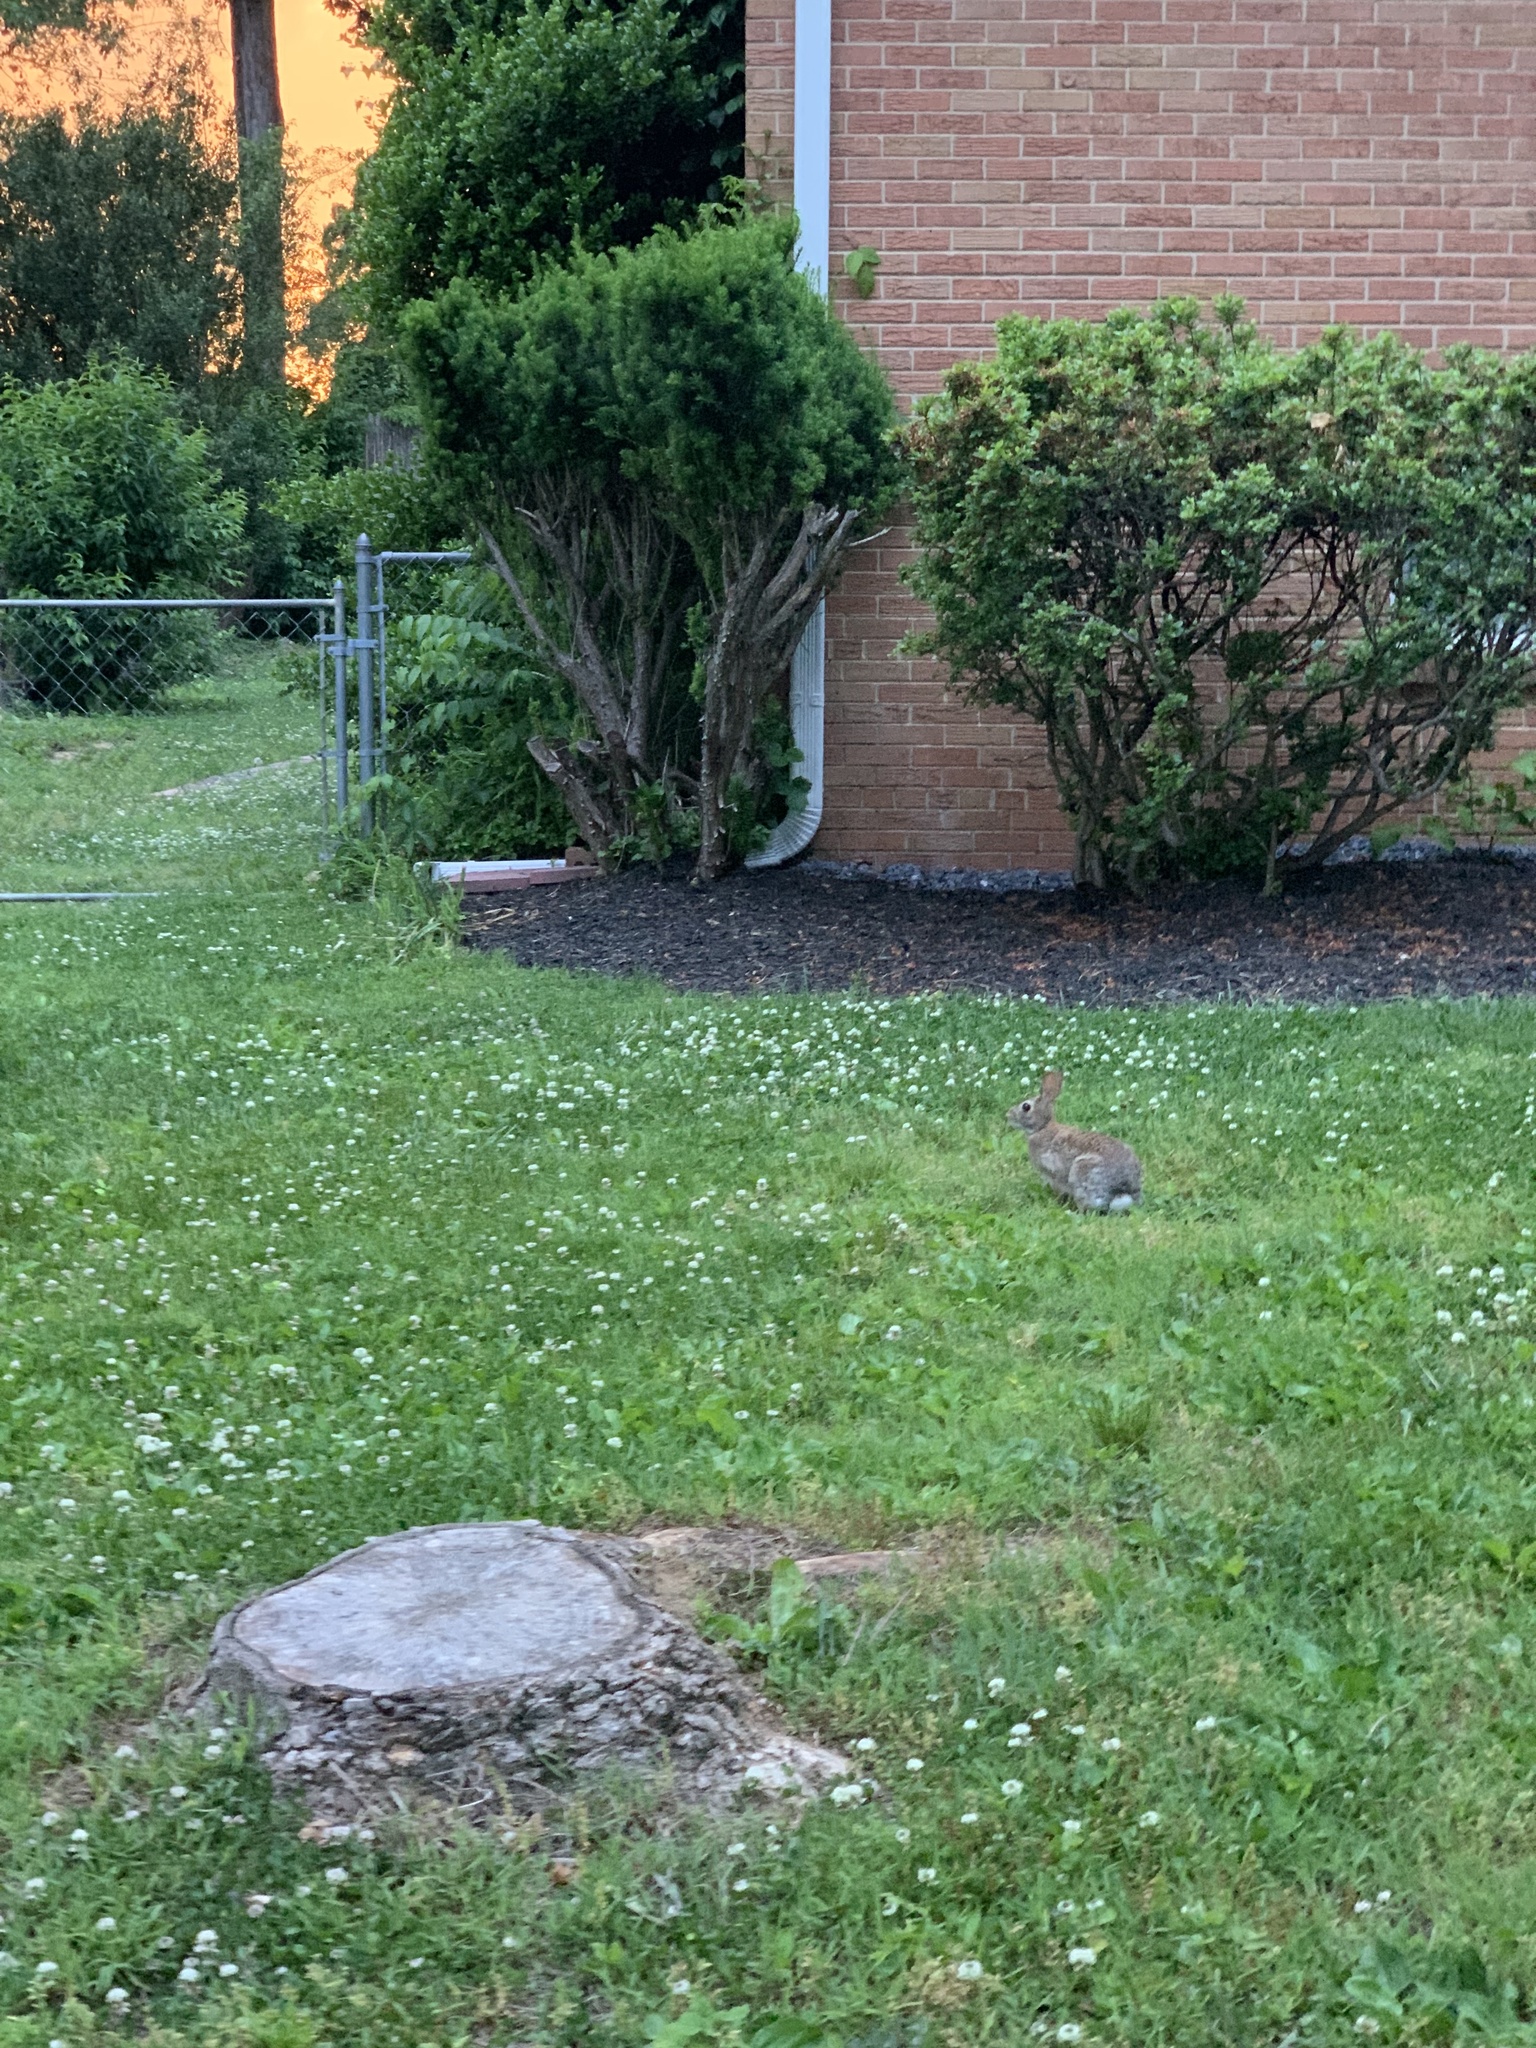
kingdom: Animalia
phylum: Chordata
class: Mammalia
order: Lagomorpha
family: Leporidae
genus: Sylvilagus
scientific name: Sylvilagus floridanus
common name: Eastern cottontail
